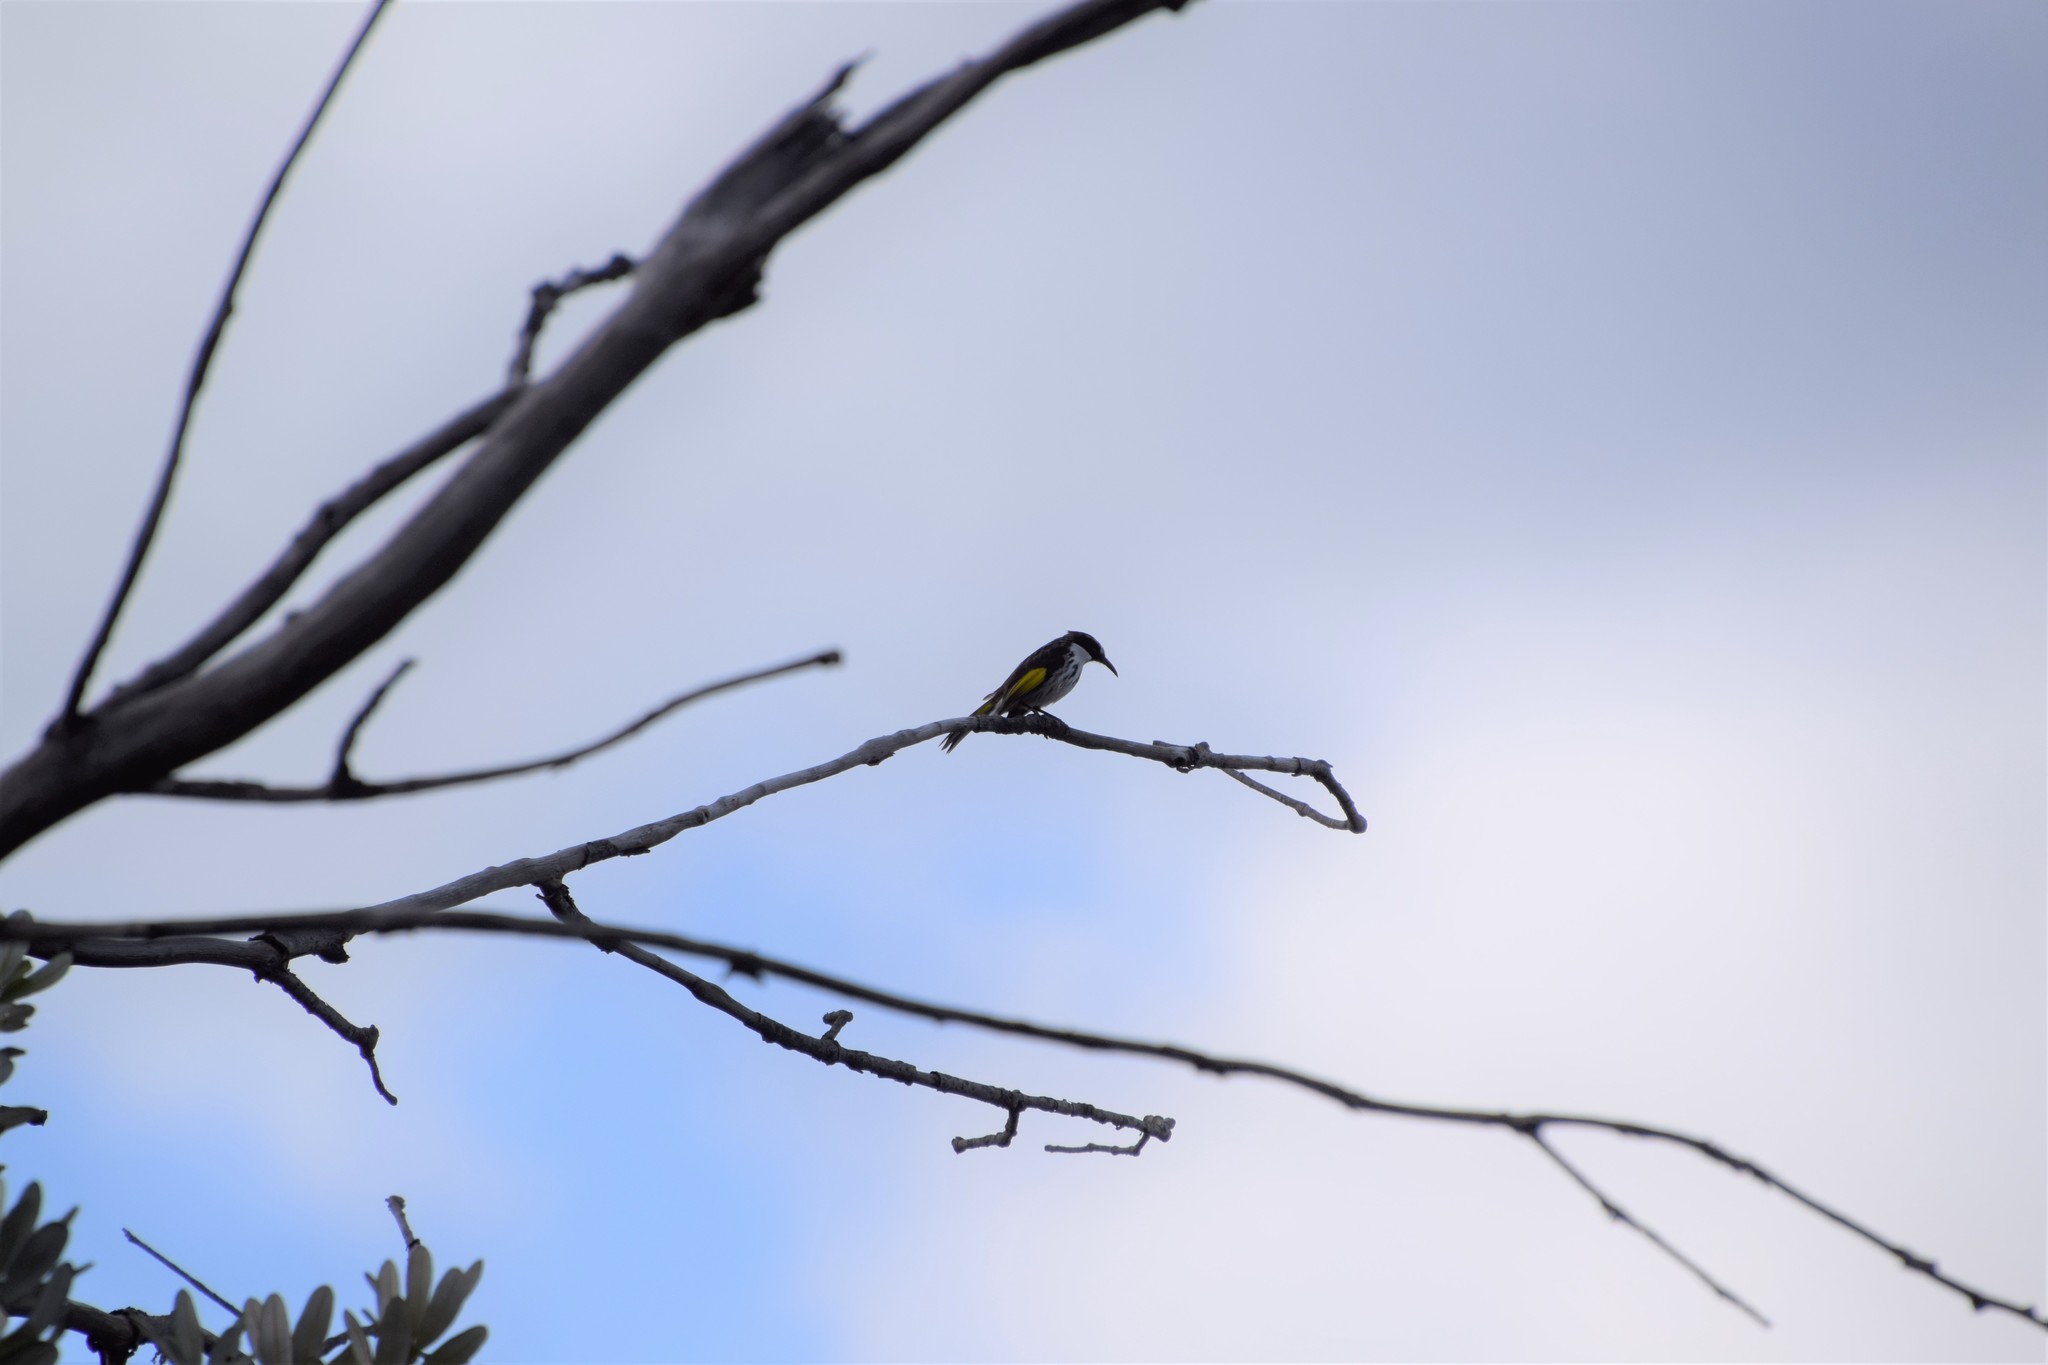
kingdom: Animalia
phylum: Chordata
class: Aves
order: Passeriformes
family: Meliphagidae
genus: Phylidonyris
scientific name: Phylidonyris niger
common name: White-cheeked honeyeater
